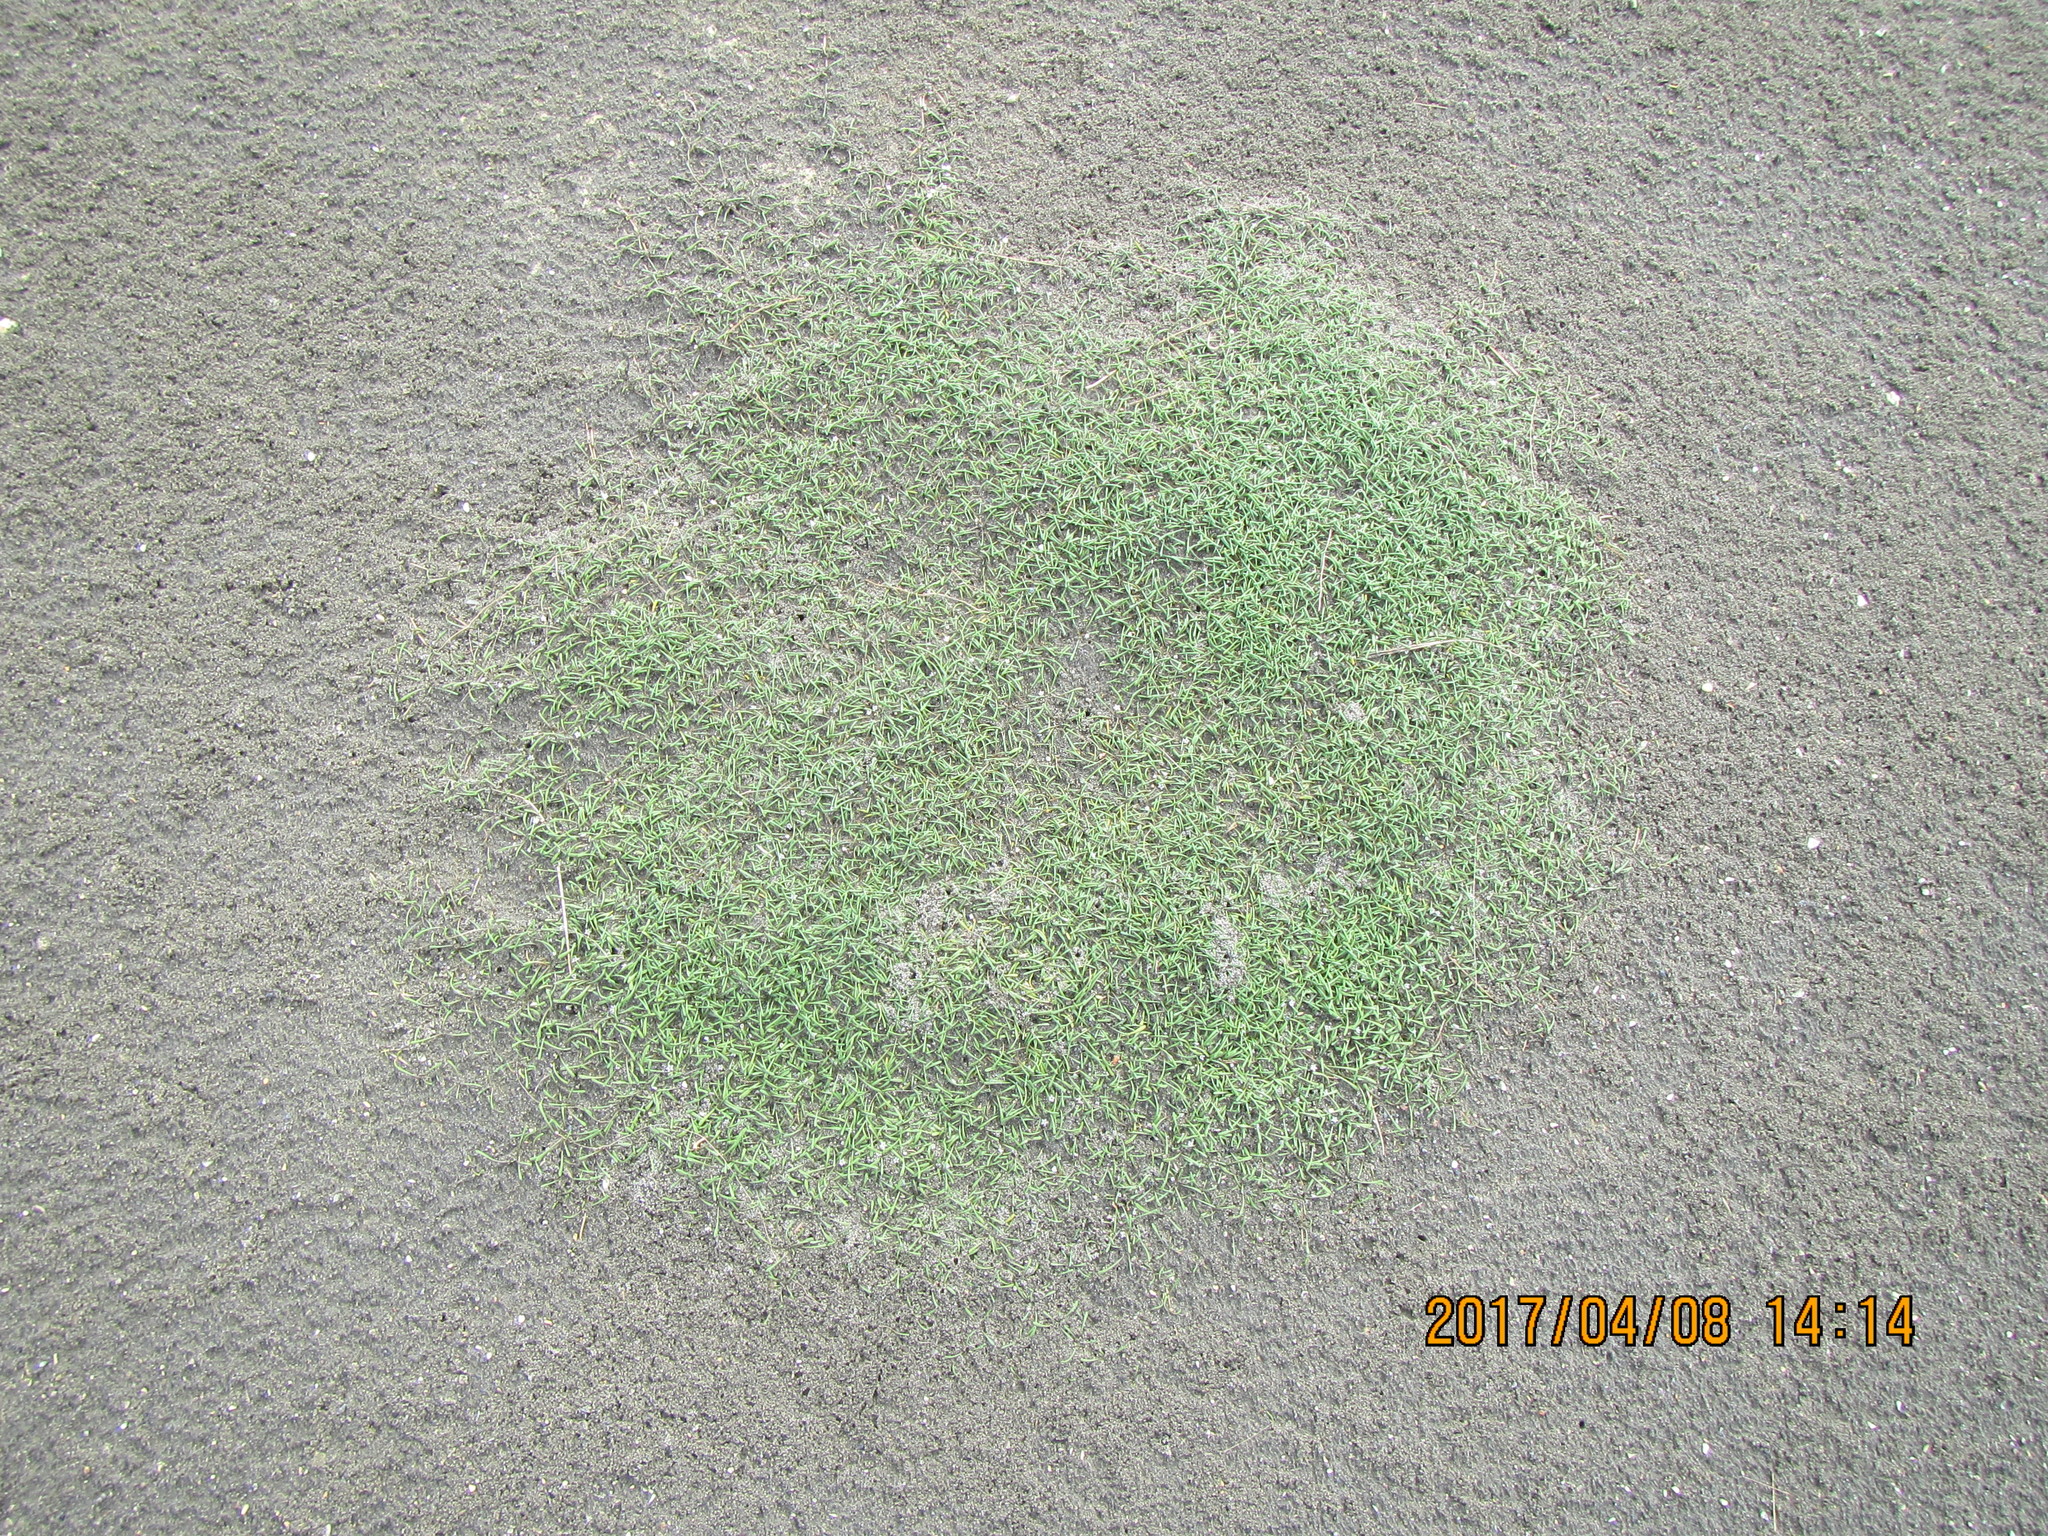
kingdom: Plantae
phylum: Tracheophyta
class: Magnoliopsida
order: Lamiales
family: Scrophulariaceae
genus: Limosella
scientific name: Limosella australis
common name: Welsh mudwort
